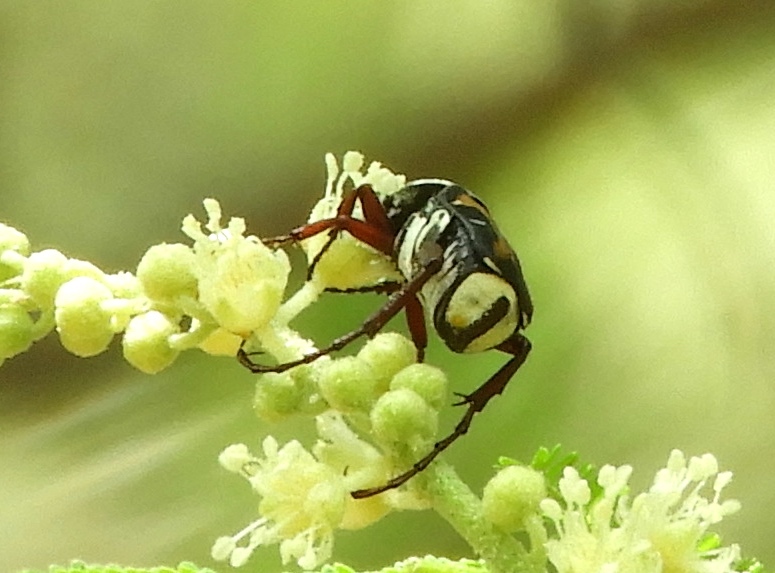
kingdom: Animalia
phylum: Arthropoda
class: Insecta
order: Coleoptera
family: Scarabaeidae
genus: Trigonopeltastes
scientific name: Trigonopeltastes
